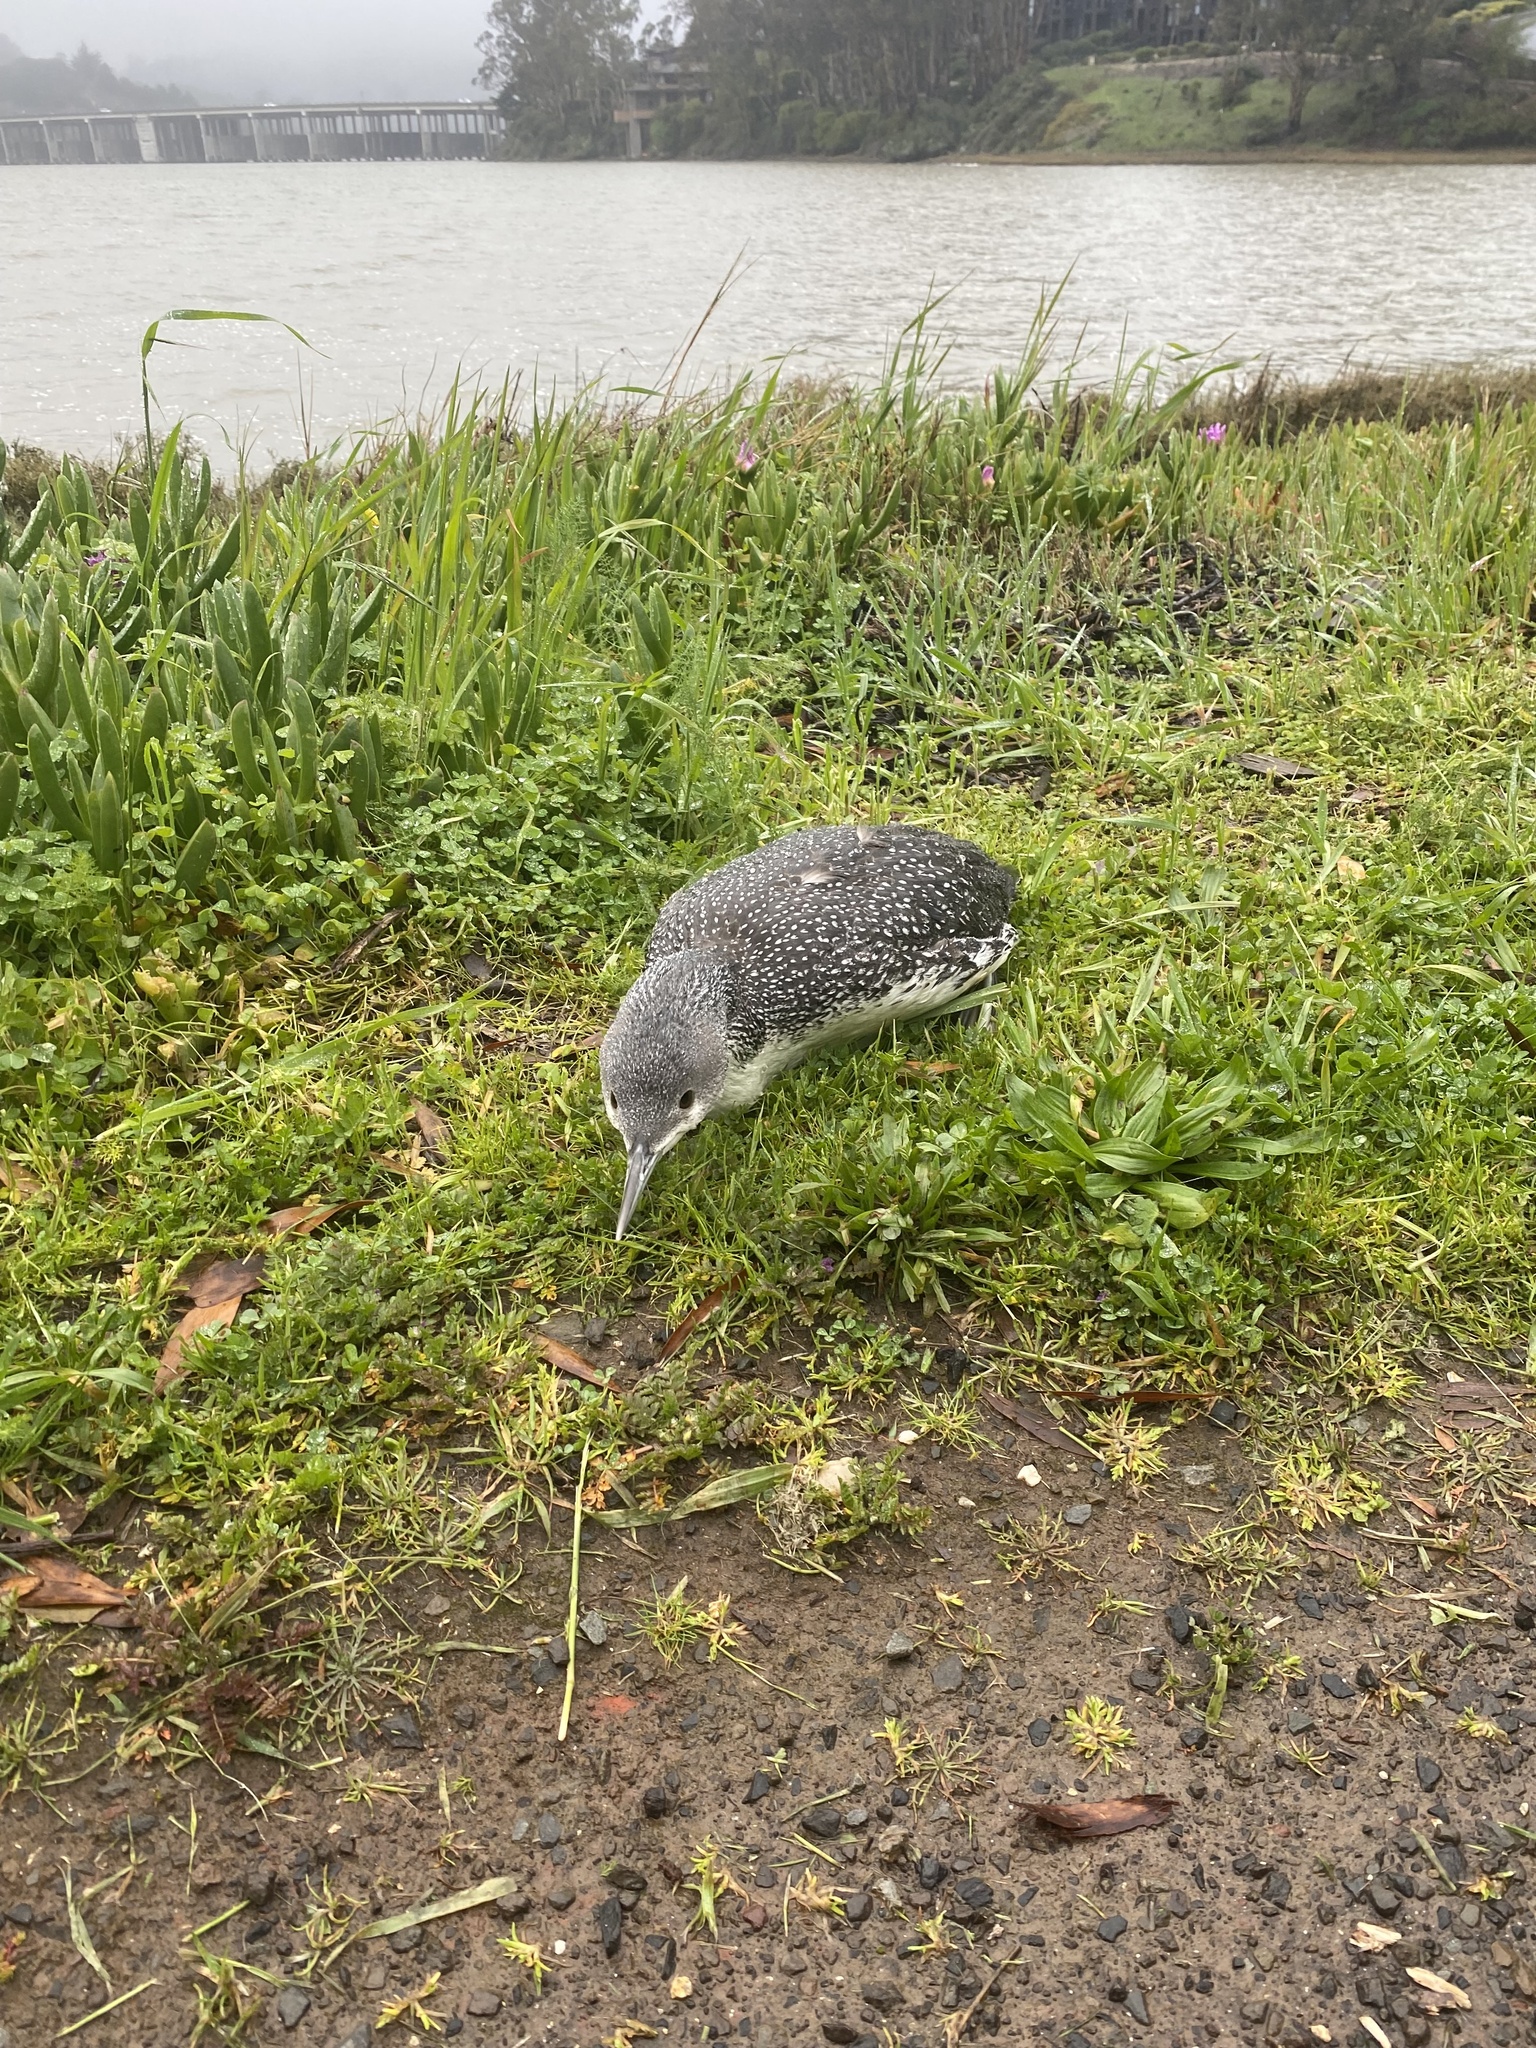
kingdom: Animalia
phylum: Chordata
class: Aves
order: Gaviiformes
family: Gaviidae
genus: Gavia
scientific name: Gavia stellata
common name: Red-throated loon
